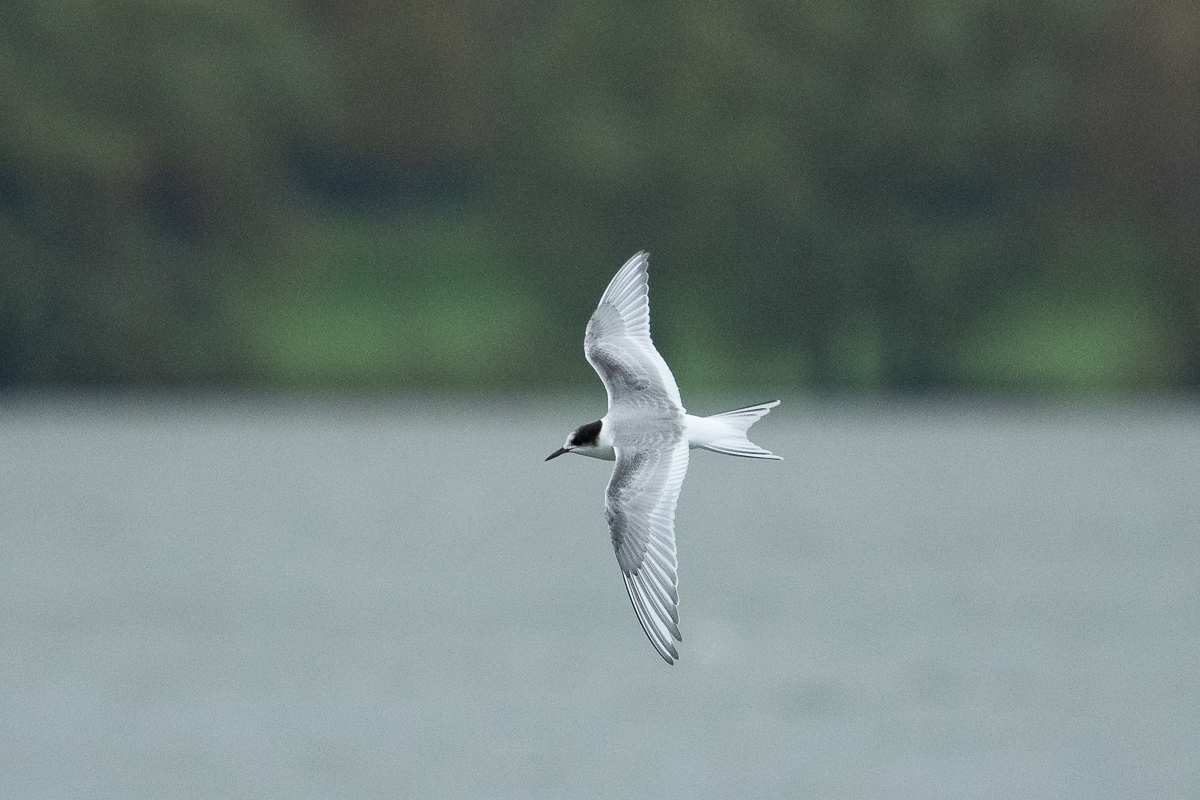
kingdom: Animalia
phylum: Chordata
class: Aves
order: Charadriiformes
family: Laridae
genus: Sterna
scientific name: Sterna paradisaea
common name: Arctic tern
